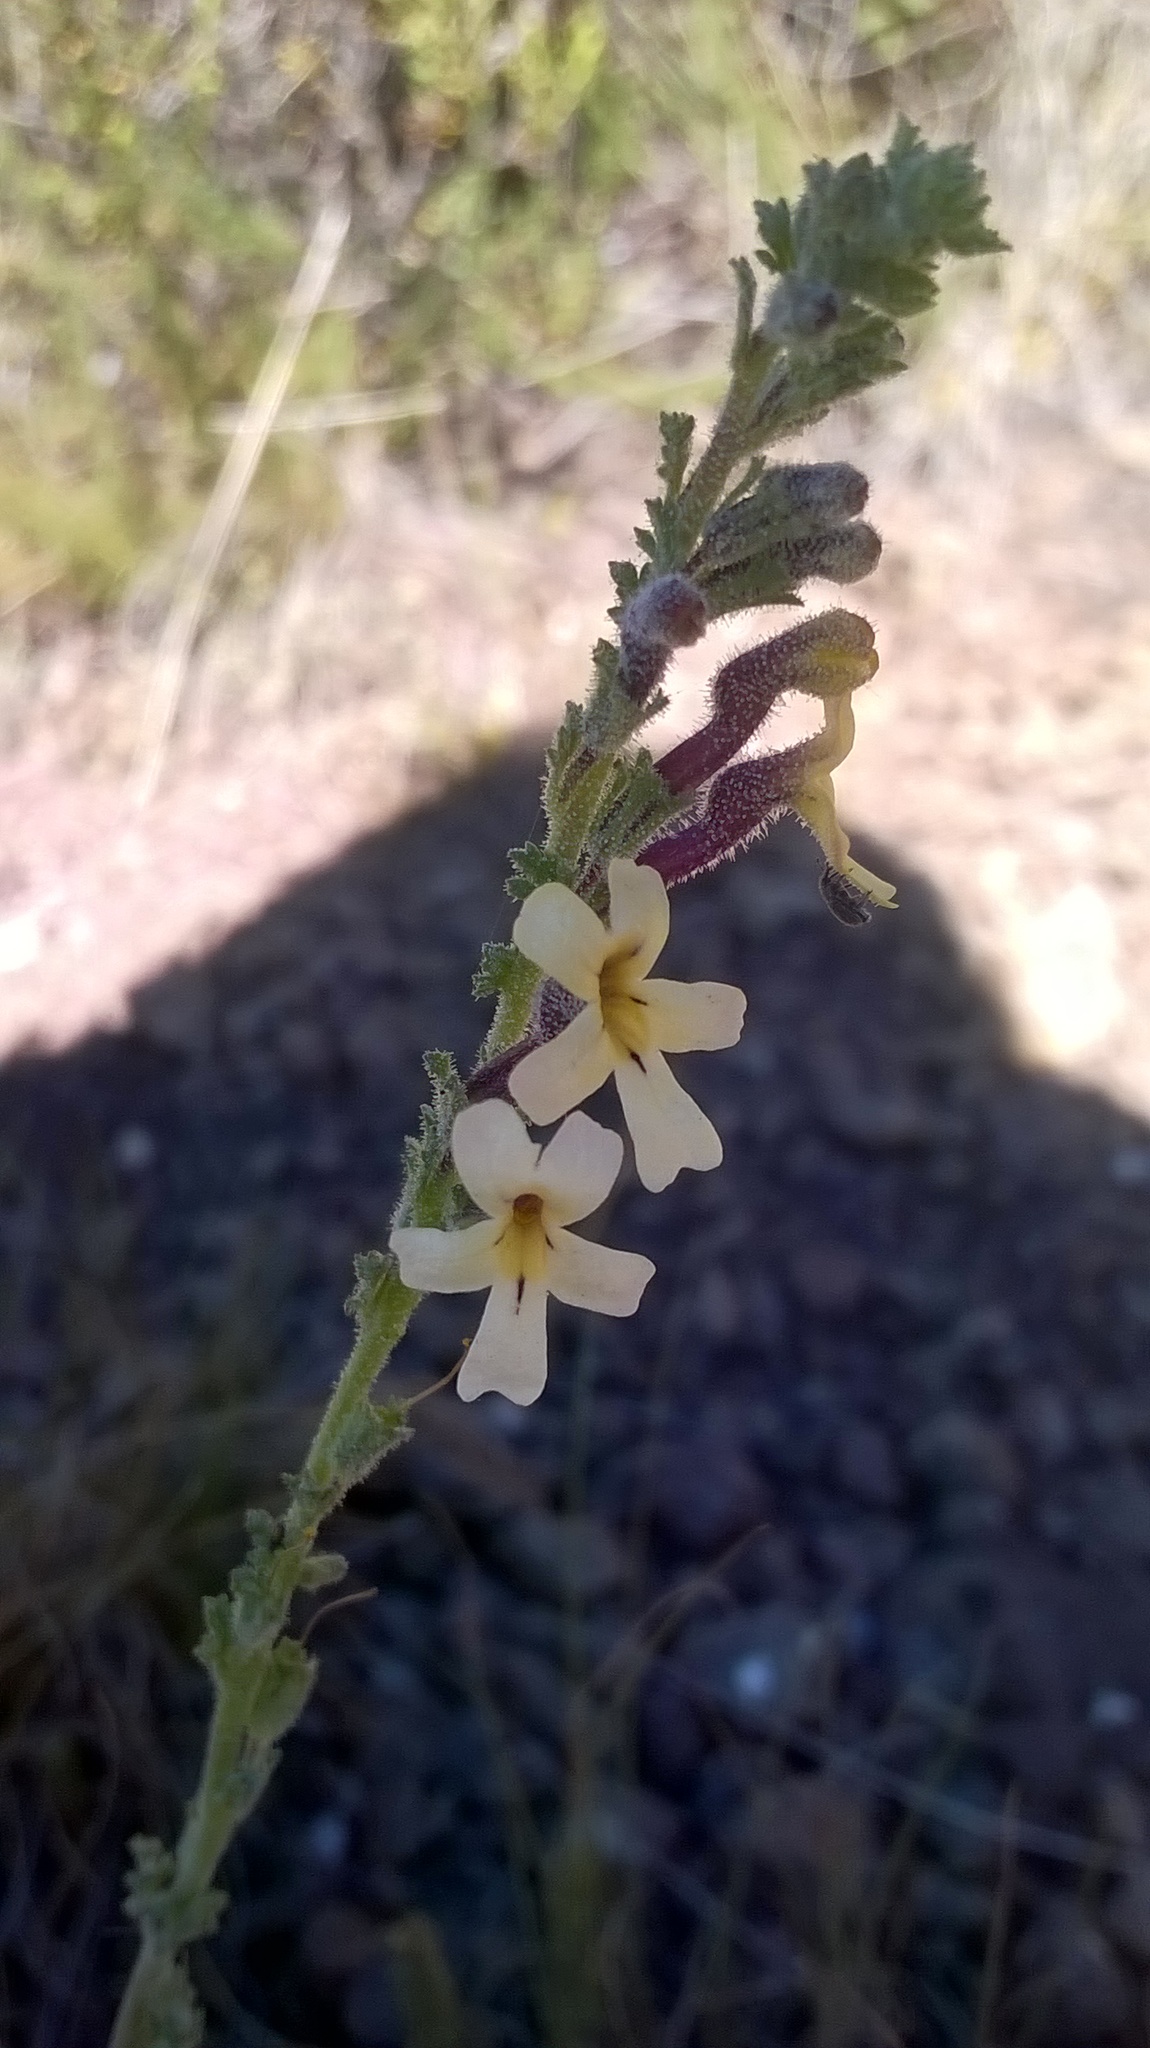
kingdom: Plantae
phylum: Tracheophyta
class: Magnoliopsida
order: Lamiales
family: Scrophulariaceae
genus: Jamesbrittenia
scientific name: Jamesbrittenia pristisepala
